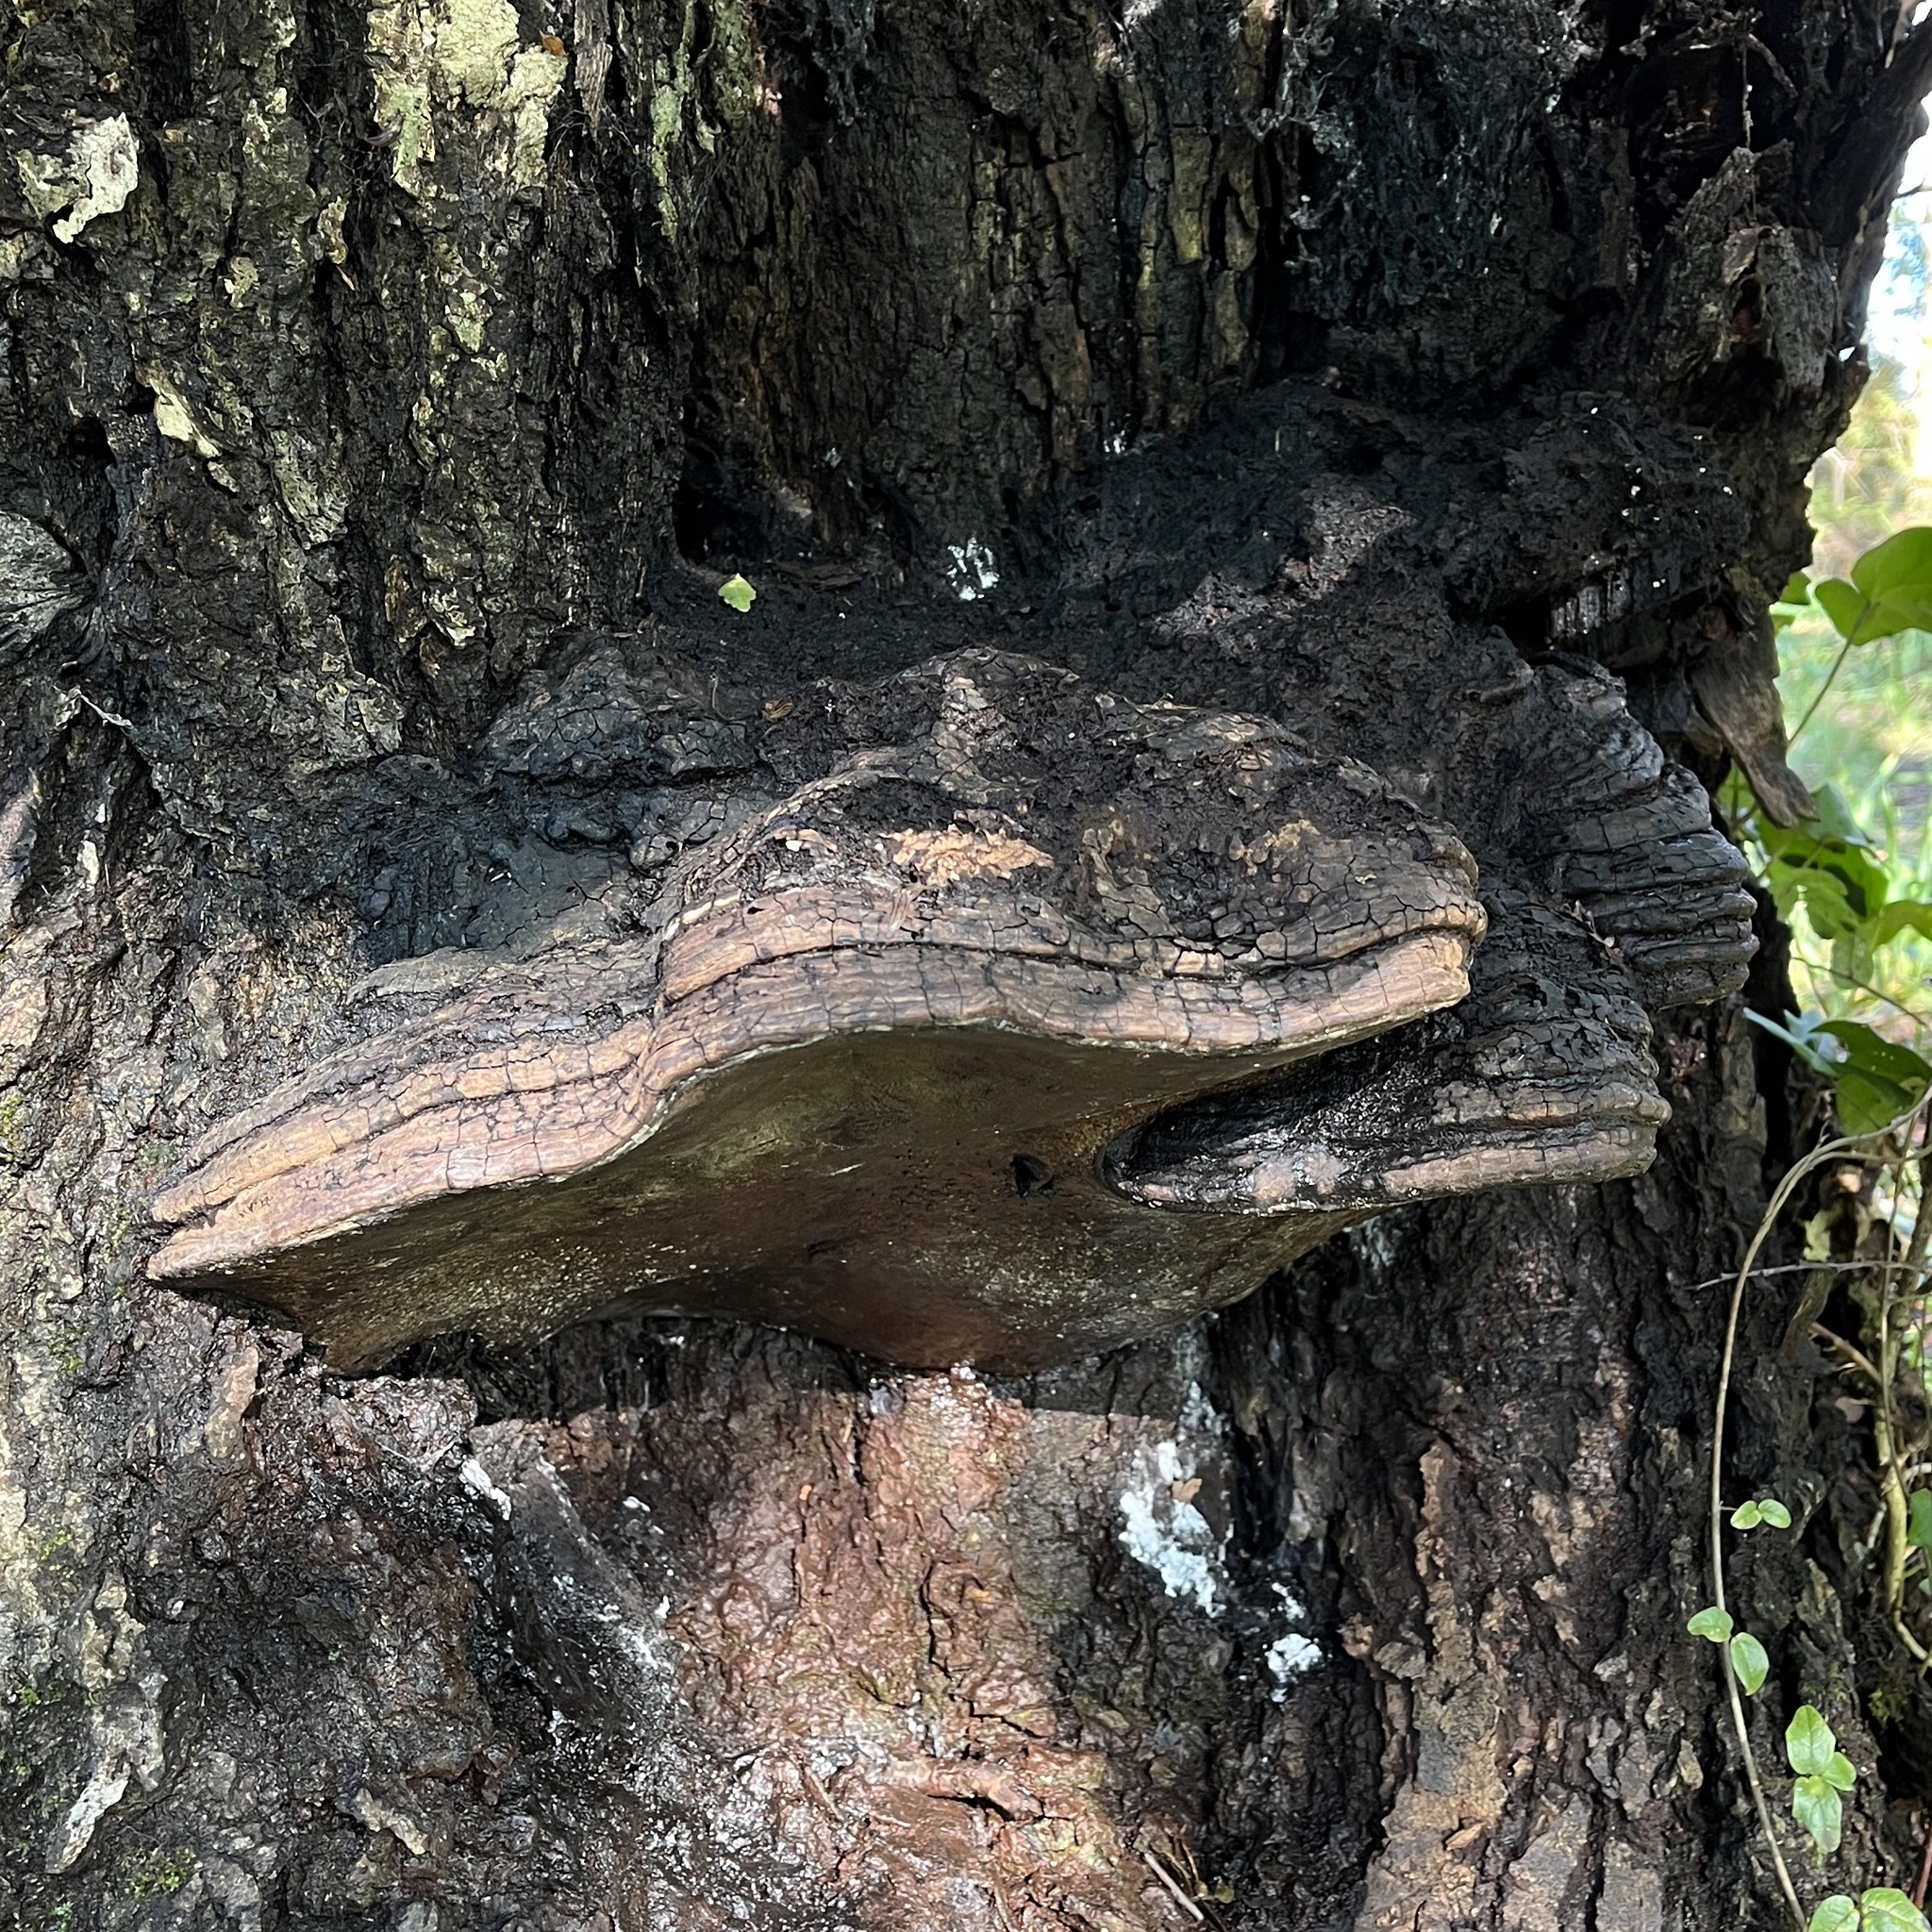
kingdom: Fungi
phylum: Basidiomycota
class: Agaricomycetes
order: Polyporales
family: Polyporaceae
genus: Ganoderma
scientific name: Ganoderma australe
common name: Southern bracket
